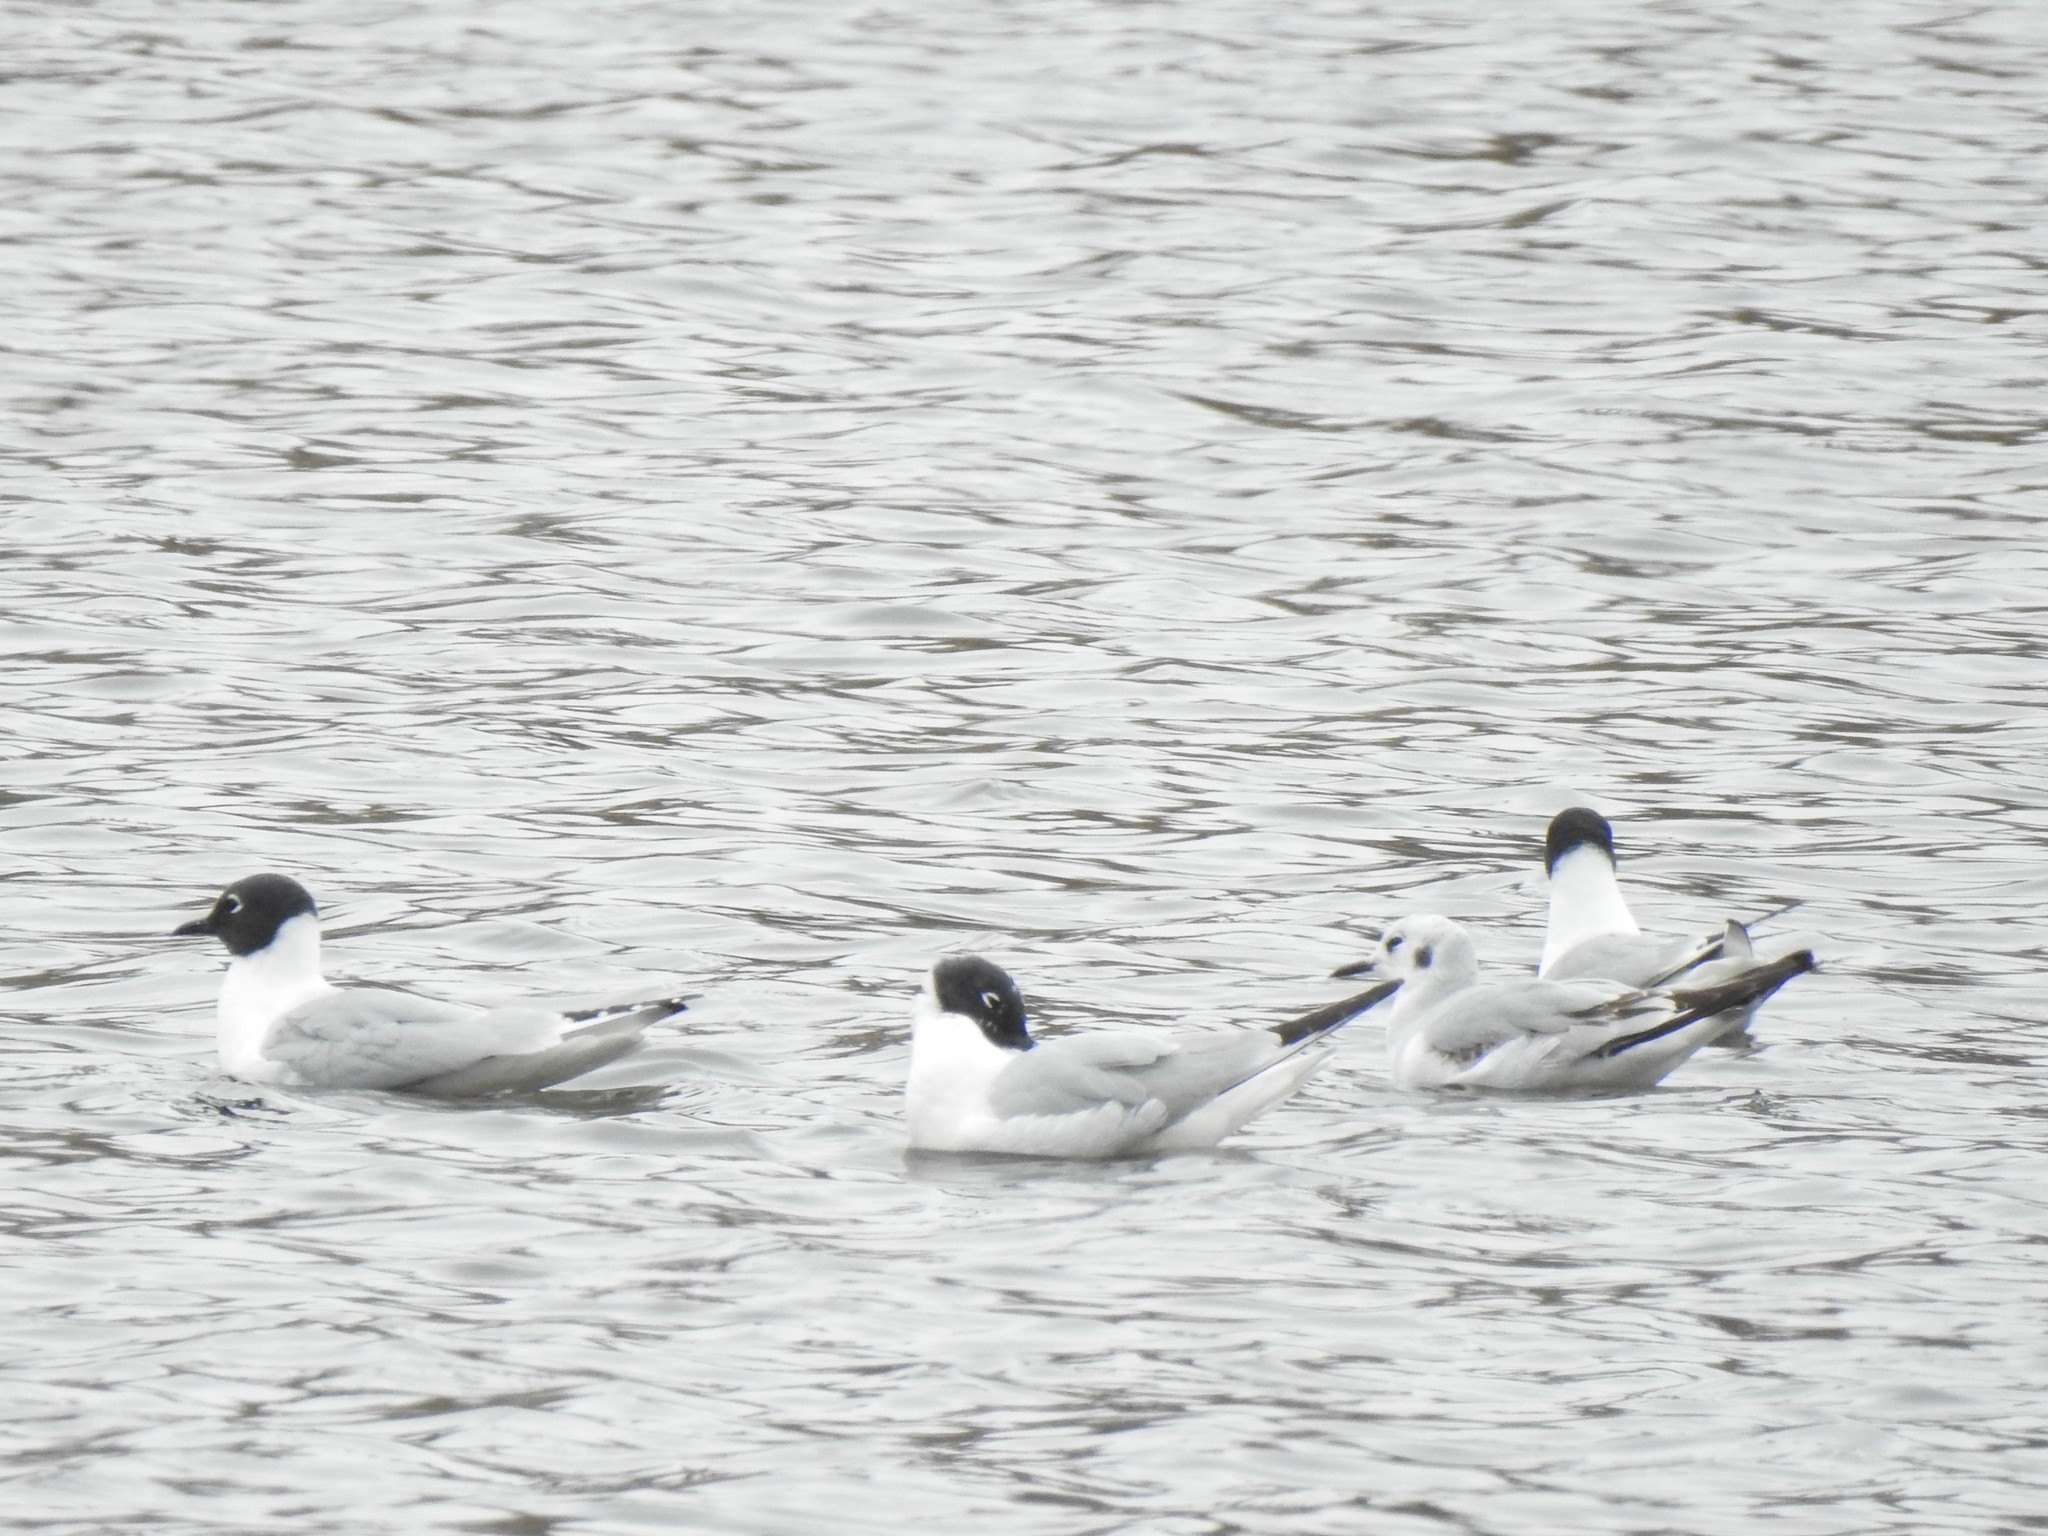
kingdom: Animalia
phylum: Chordata
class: Aves
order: Charadriiformes
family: Laridae
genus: Chroicocephalus
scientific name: Chroicocephalus philadelphia
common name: Bonaparte's gull
